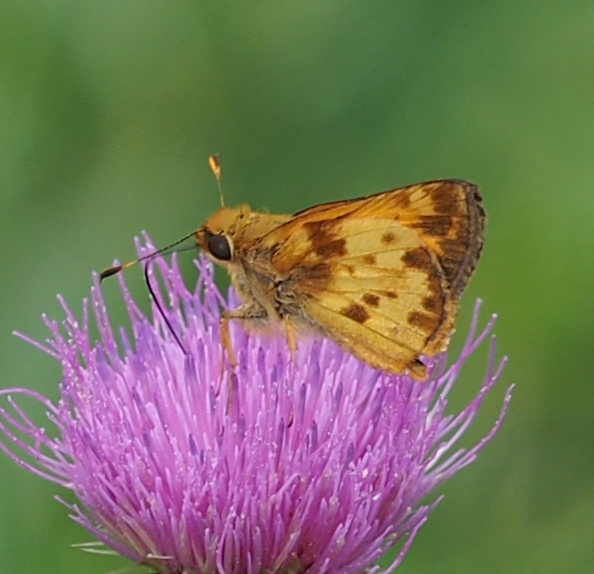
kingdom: Animalia
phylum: Arthropoda
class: Insecta
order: Lepidoptera
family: Hesperiidae
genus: Lon
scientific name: Lon zabulon
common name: Zabulon skipper
